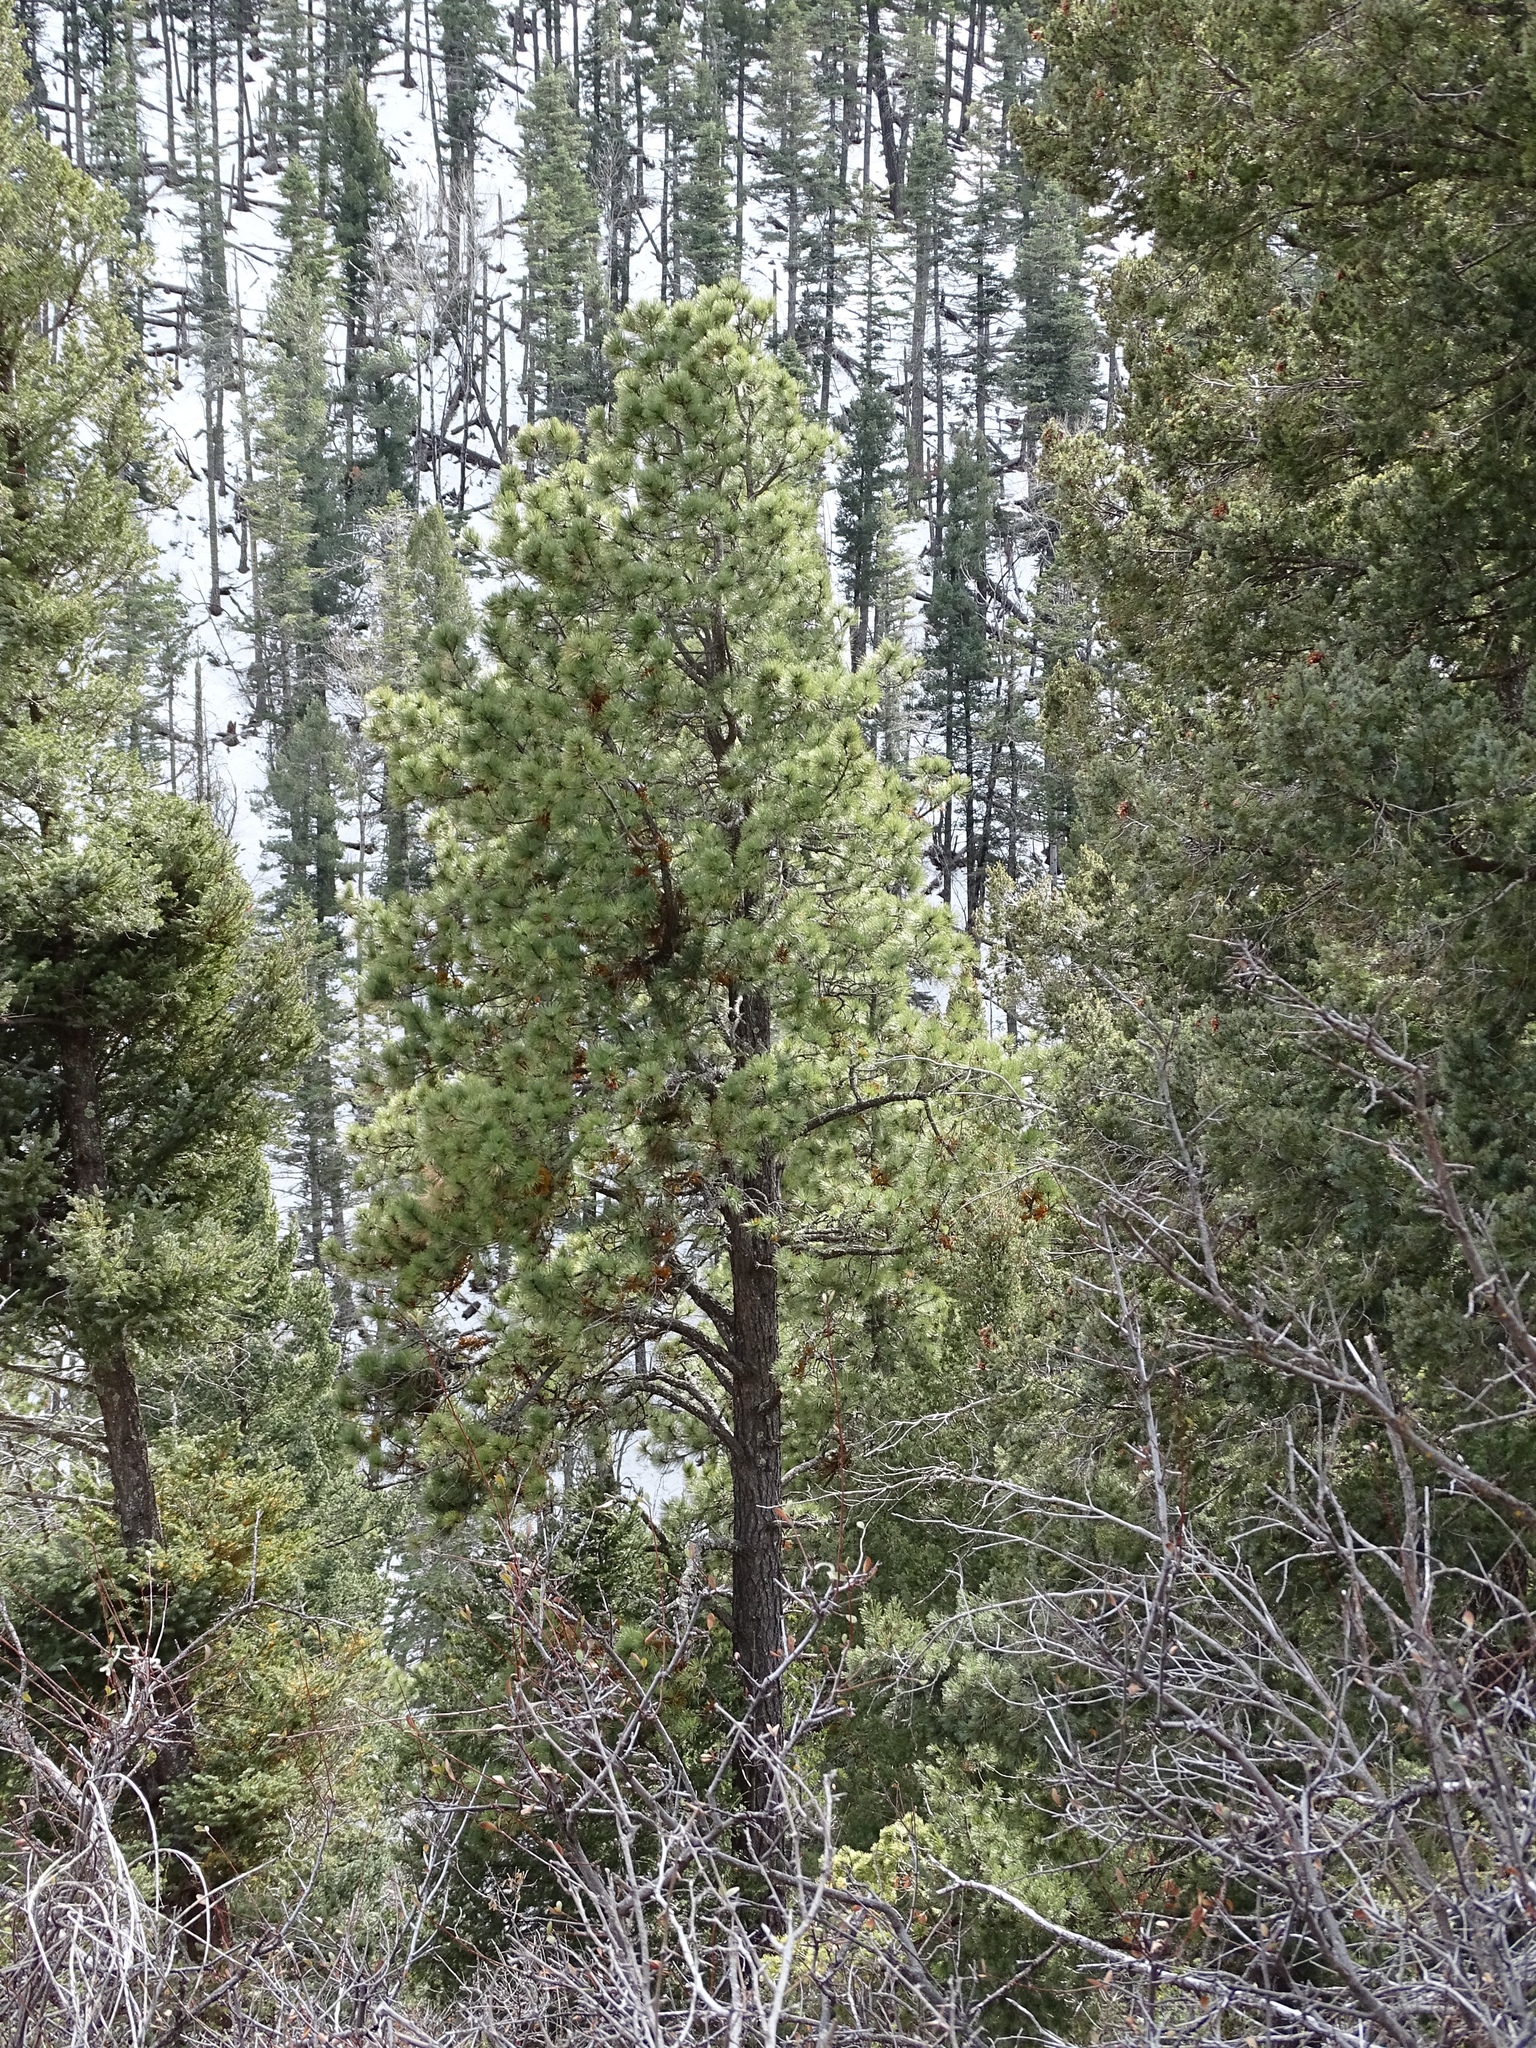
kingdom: Plantae
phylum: Tracheophyta
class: Pinopsida
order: Pinales
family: Pinaceae
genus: Pinus
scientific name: Pinus strobiformis
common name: Southwestern white pine
